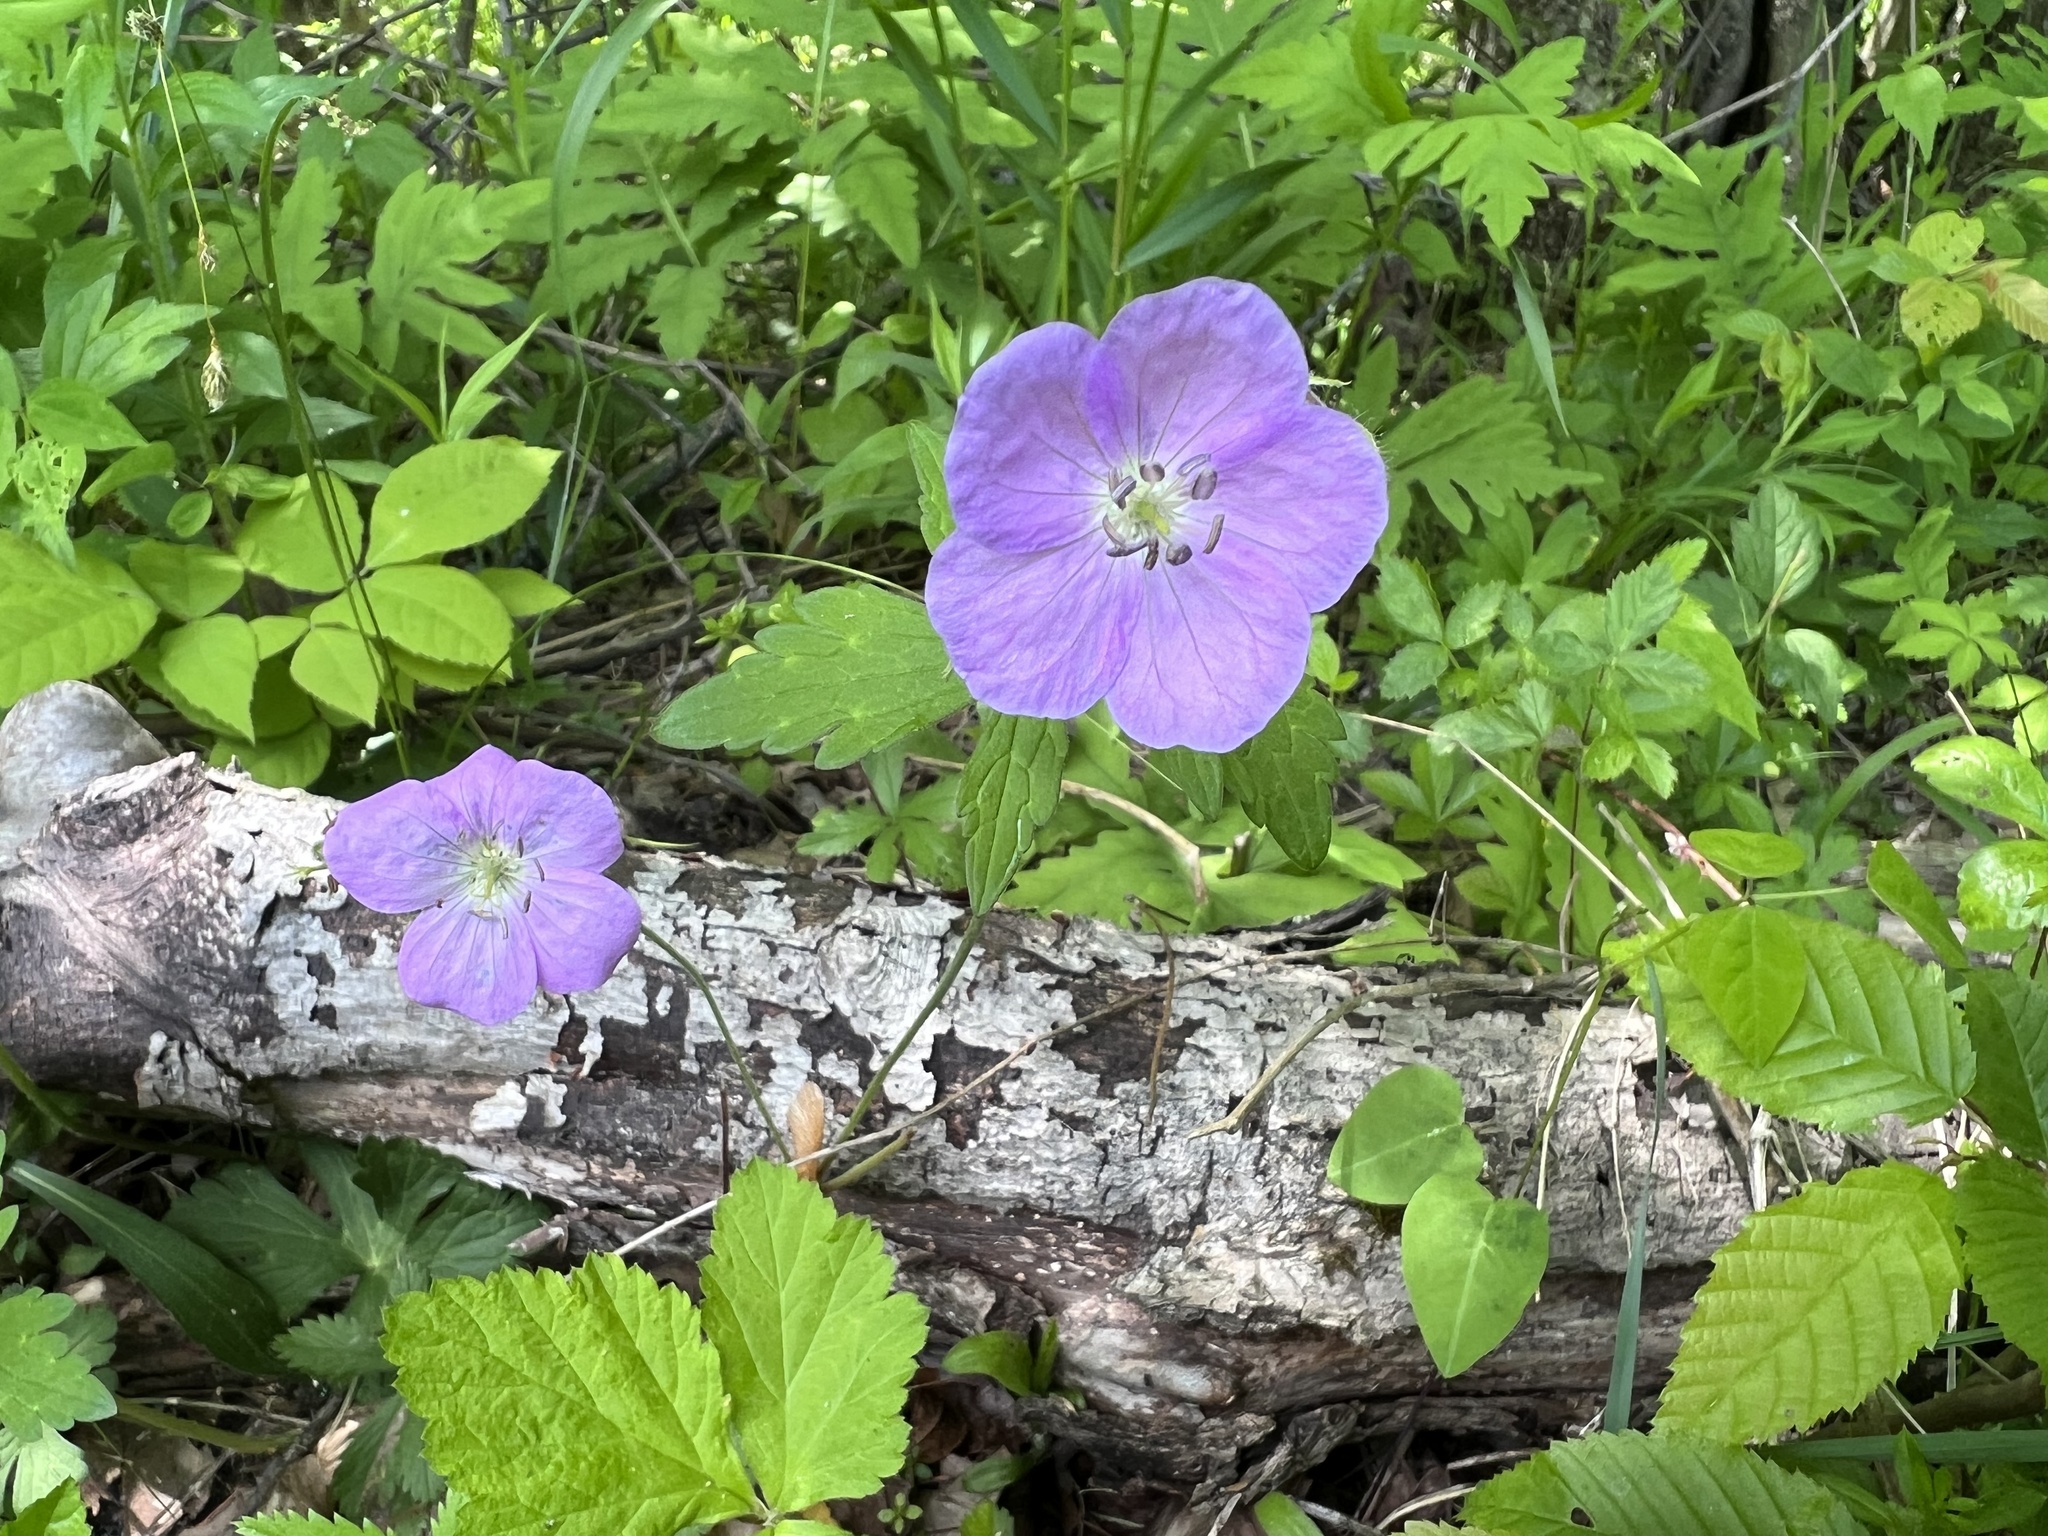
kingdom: Plantae
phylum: Tracheophyta
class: Magnoliopsida
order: Geraniales
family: Geraniaceae
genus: Geranium
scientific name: Geranium maculatum
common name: Spotted geranium
